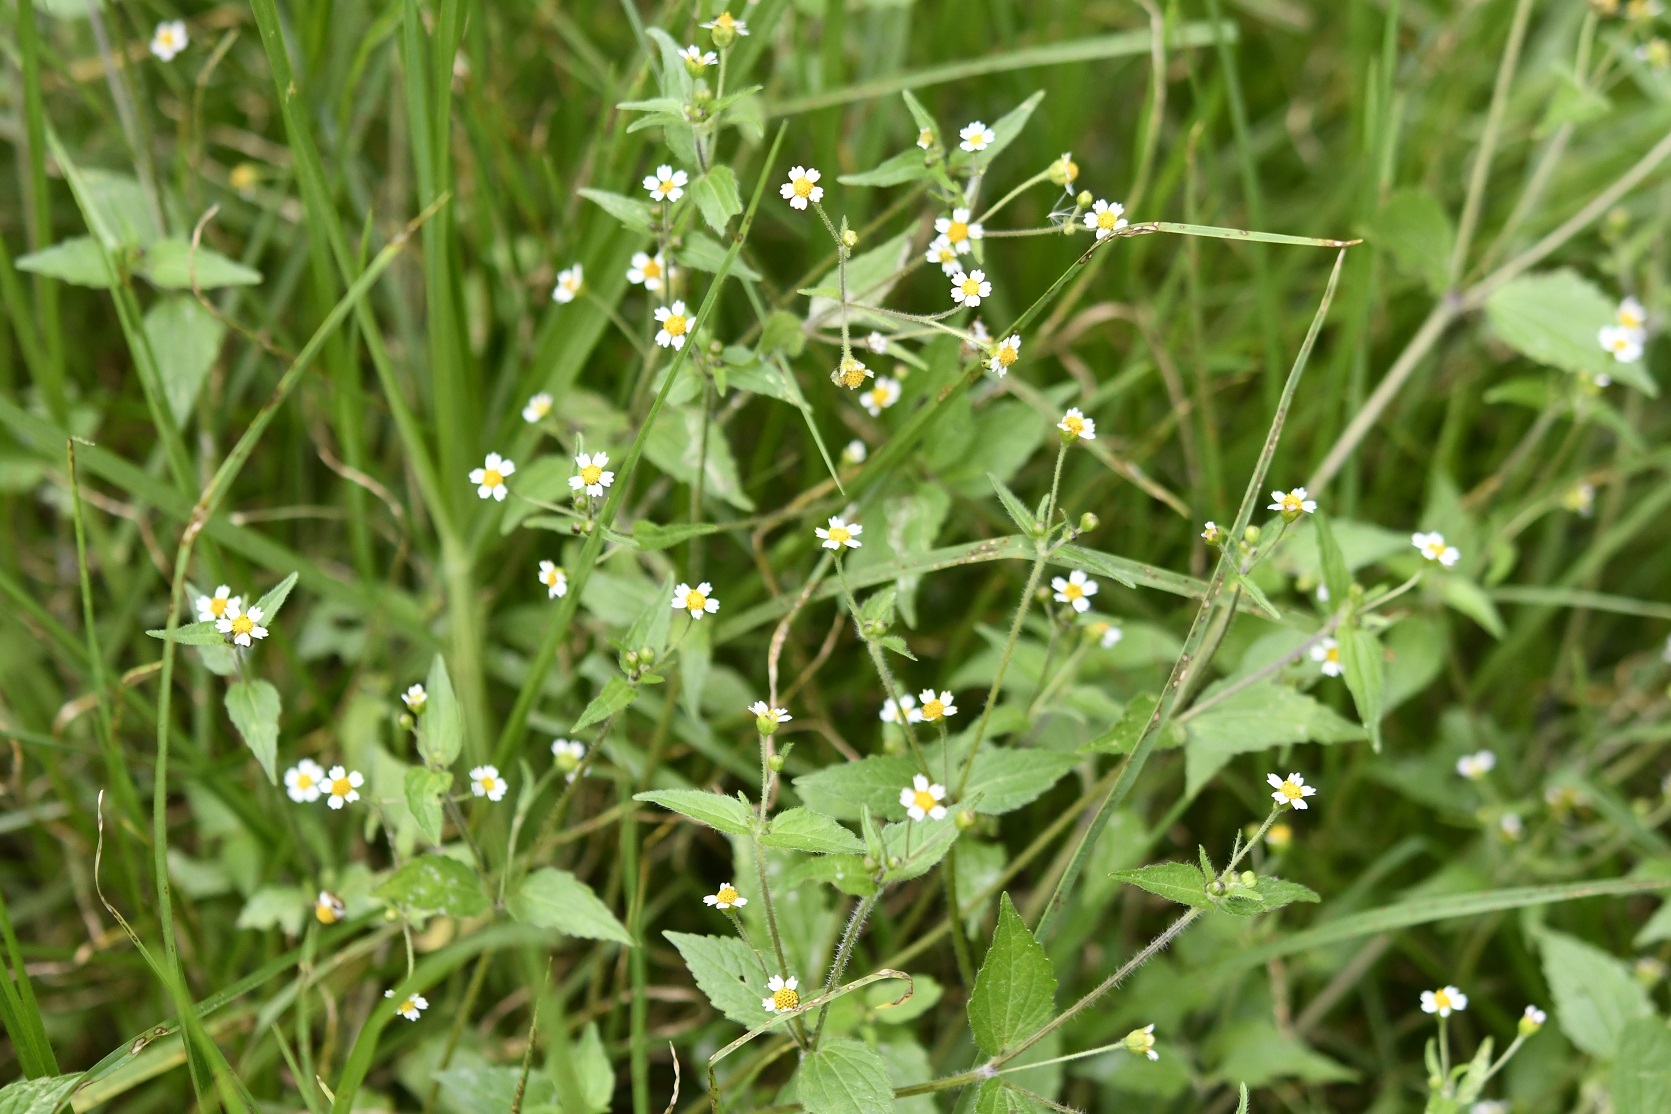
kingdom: Plantae
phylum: Tracheophyta
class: Magnoliopsida
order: Asterales
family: Asteraceae
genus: Galinsoga
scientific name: Galinsoga quadriradiata
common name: Shaggy soldier
